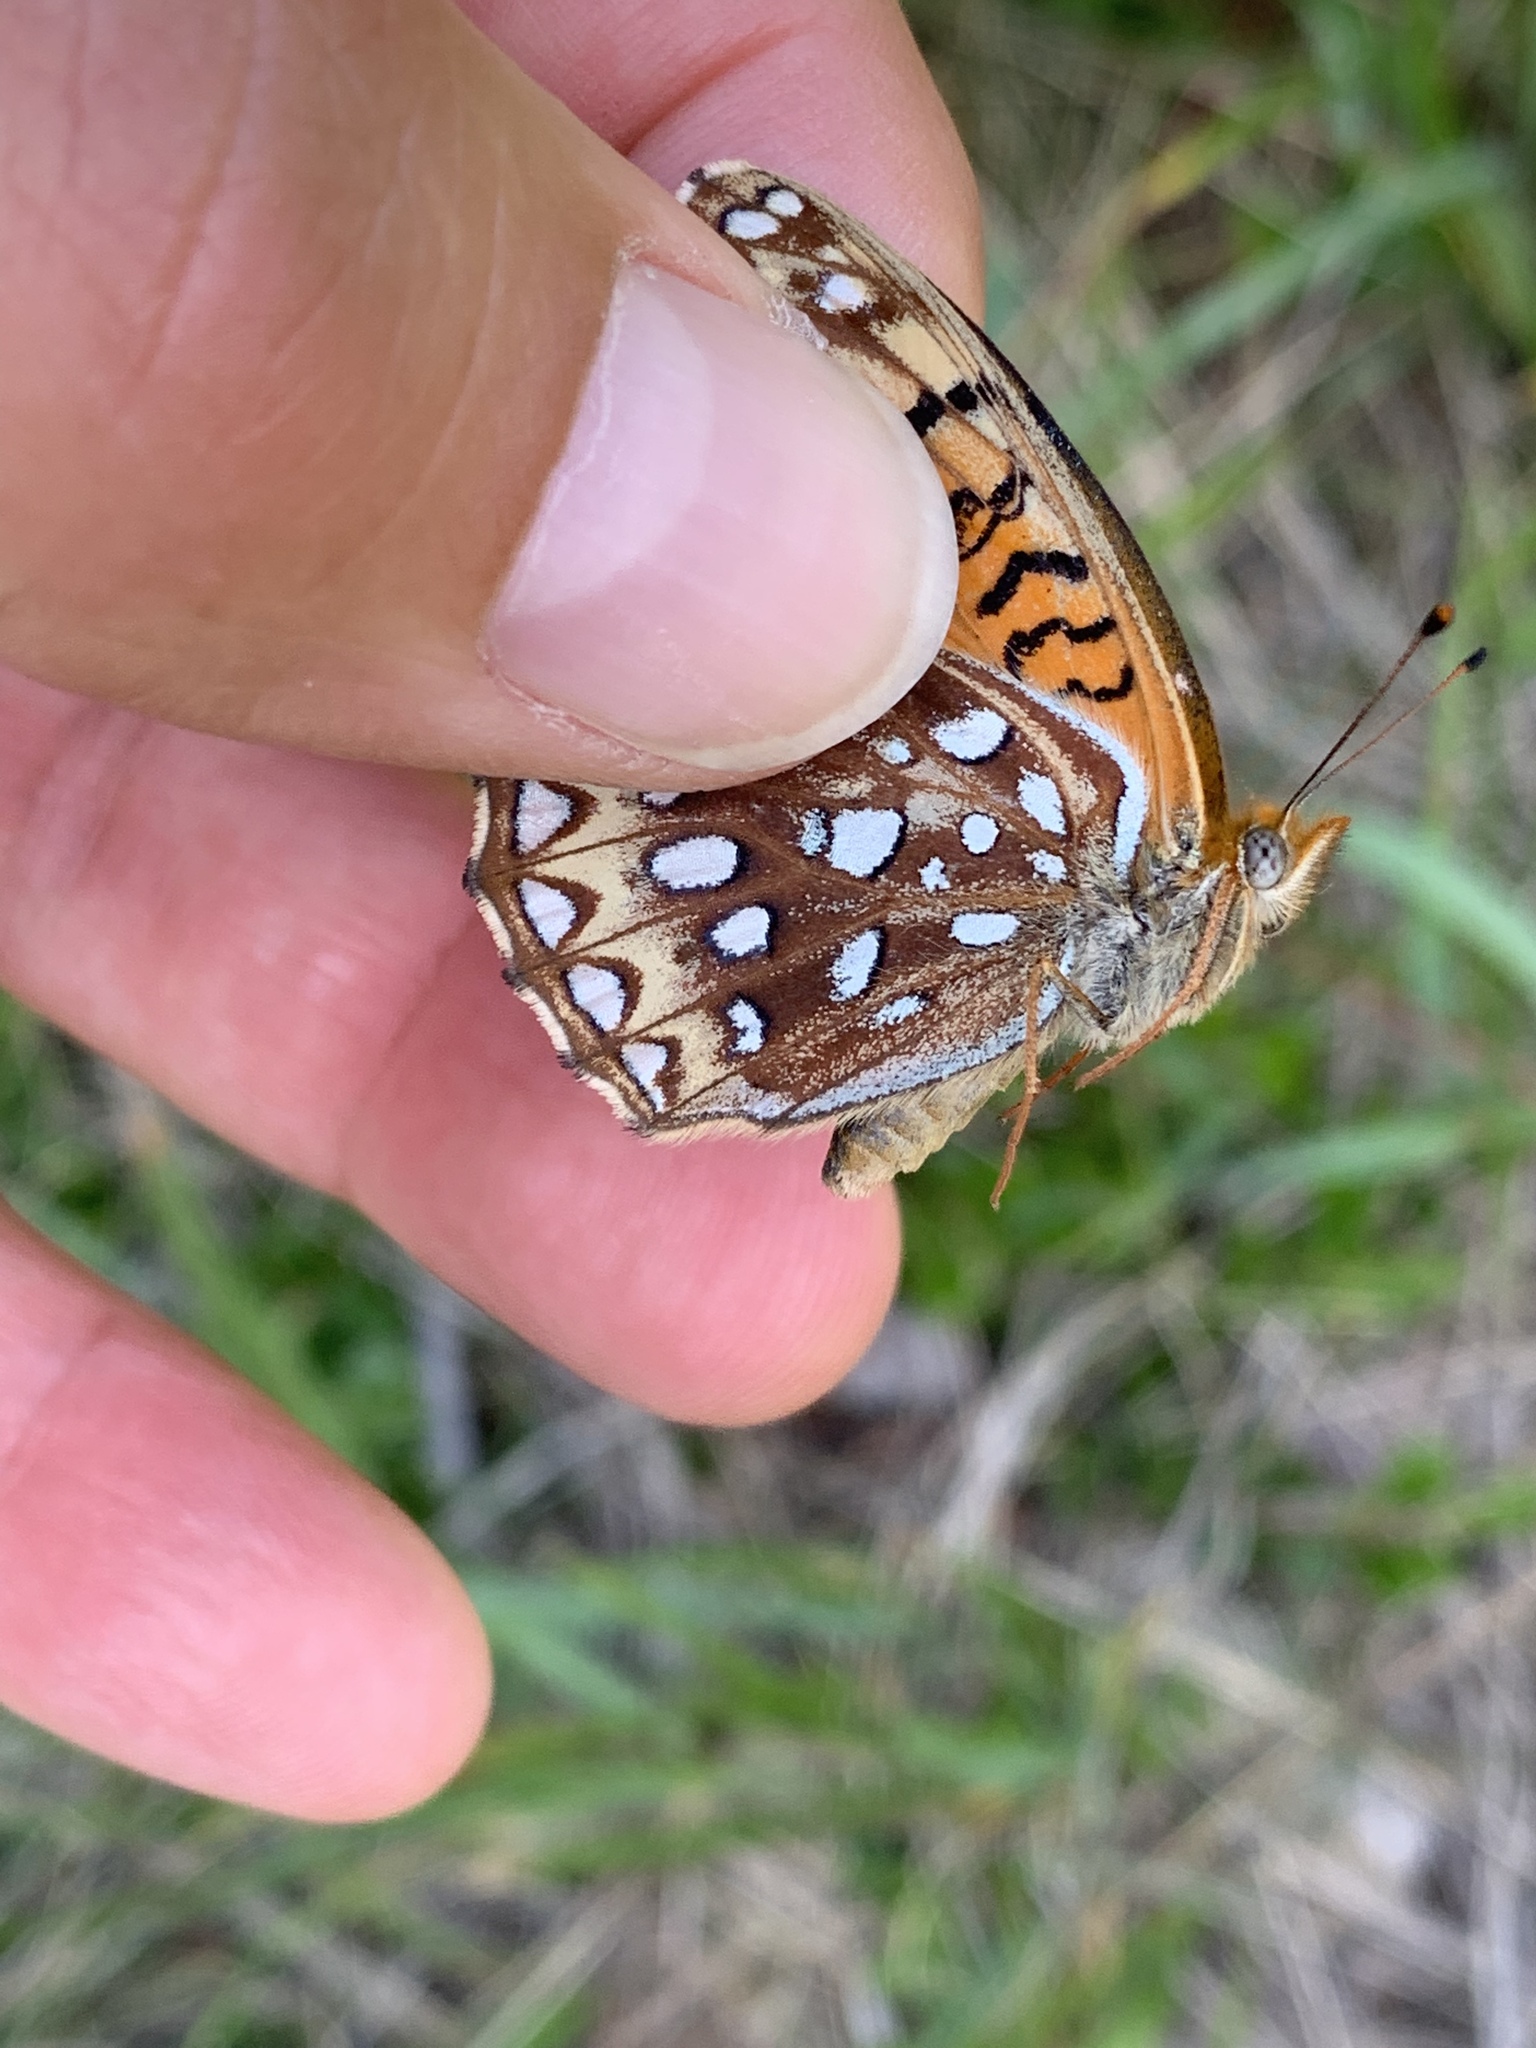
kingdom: Animalia
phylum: Arthropoda
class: Insecta
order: Lepidoptera
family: Nymphalidae
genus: Speyeria
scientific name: Speyeria atlantis
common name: Atlantis fritillary
